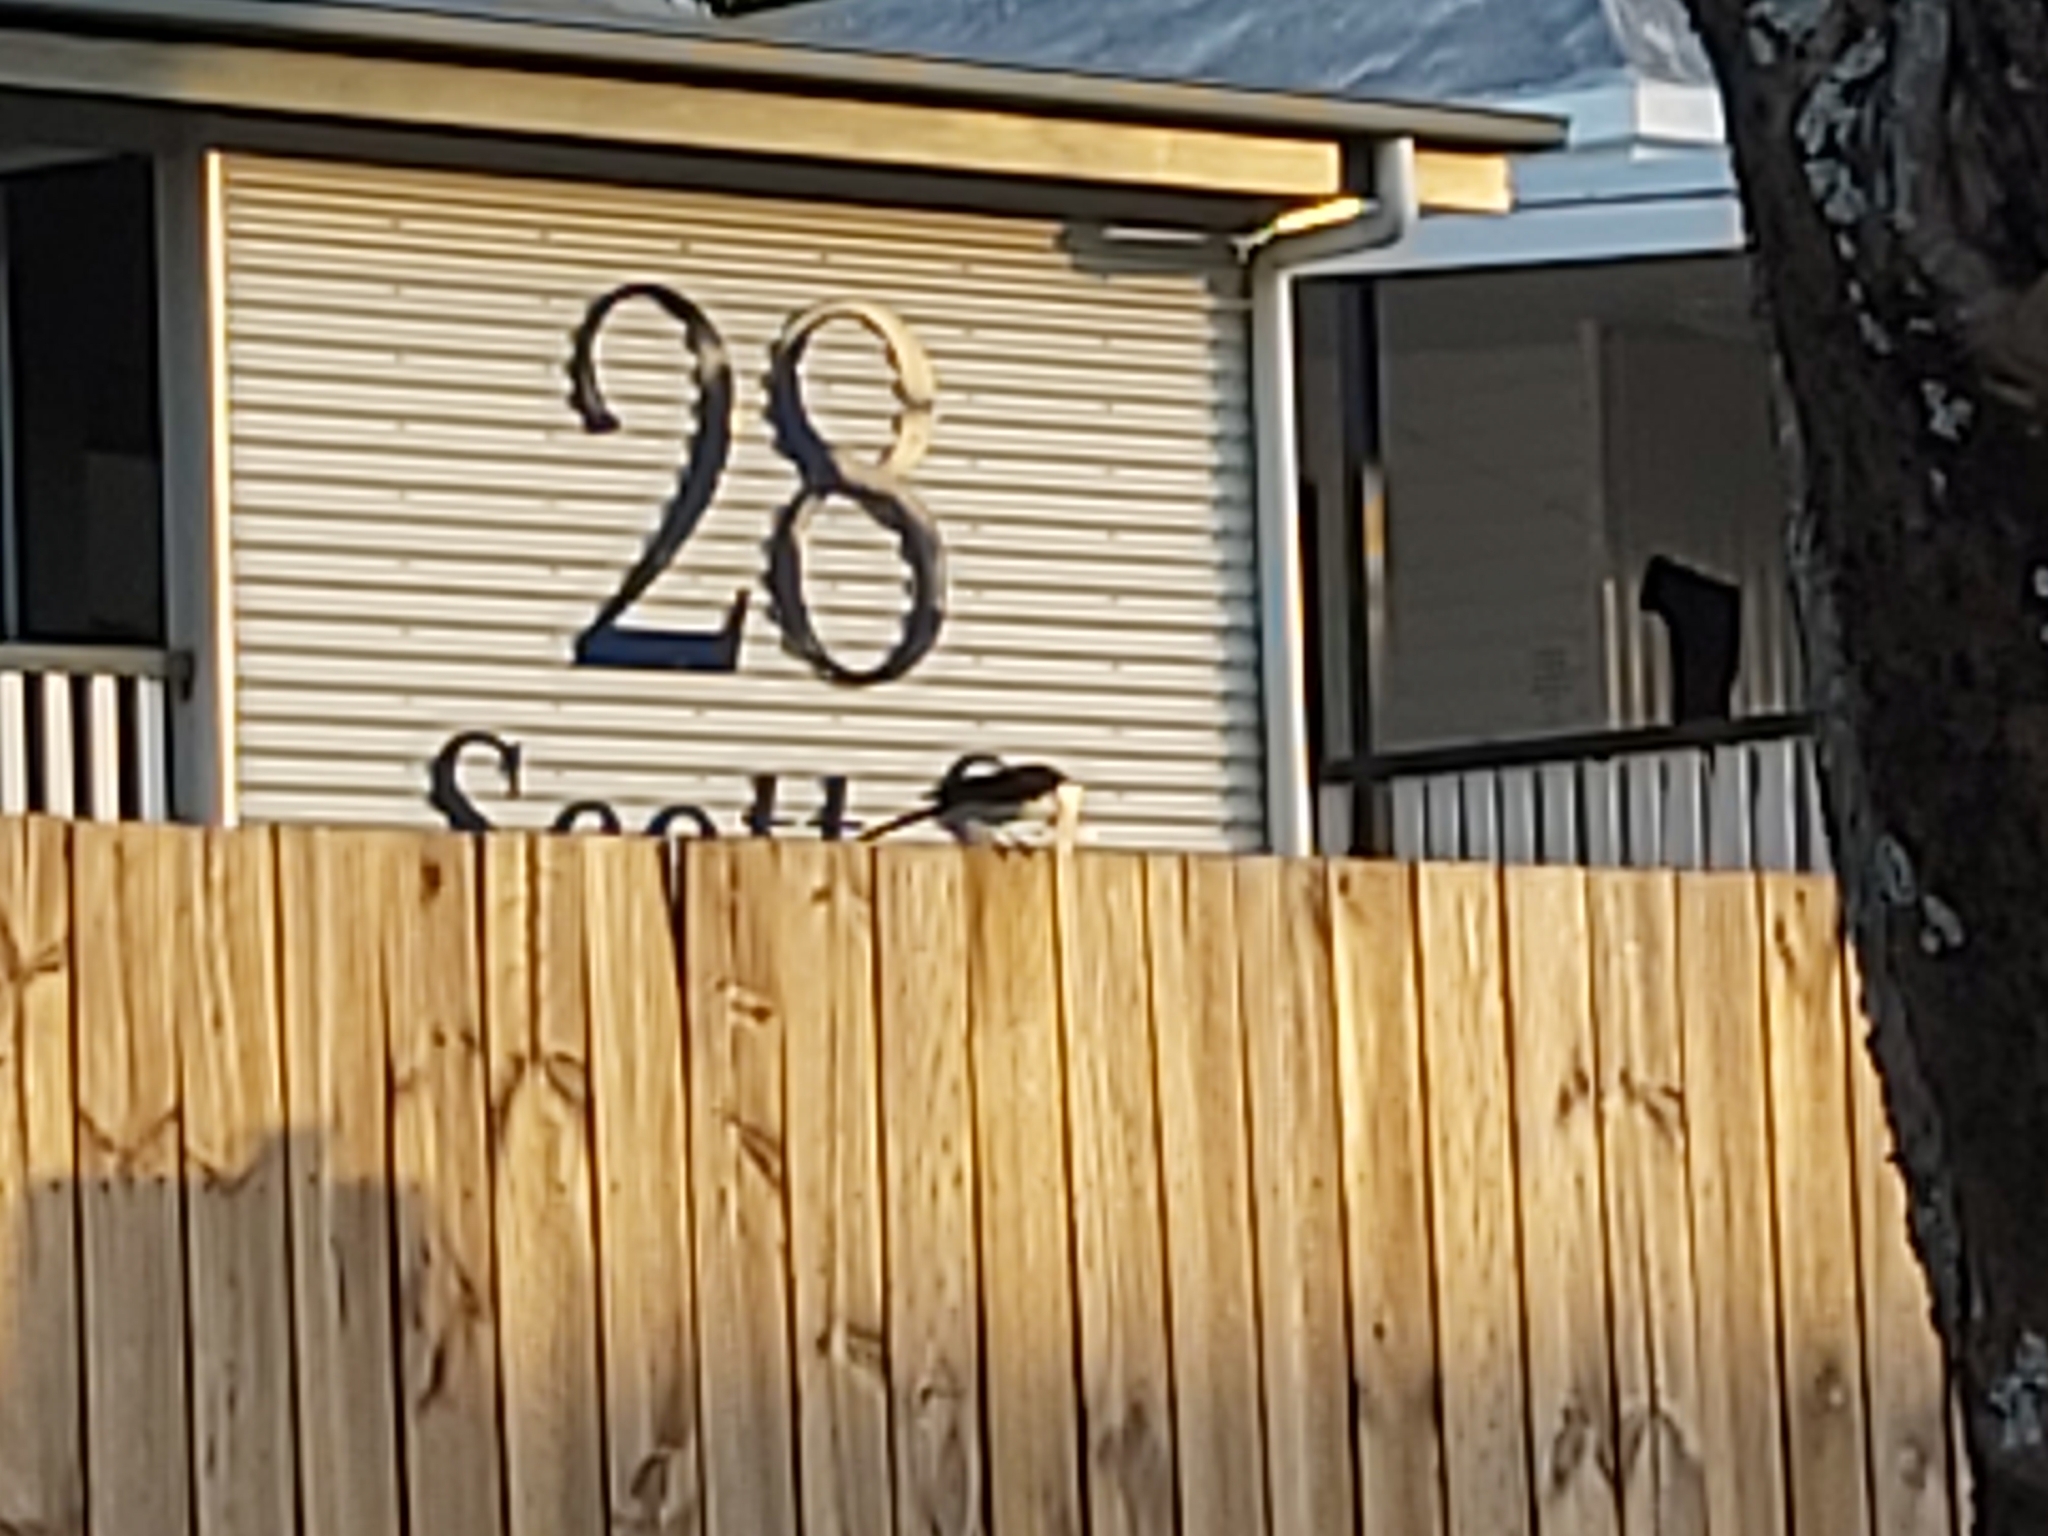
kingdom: Animalia
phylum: Chordata
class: Aves
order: Passeriformes
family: Rhipiduridae
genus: Rhipidura
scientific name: Rhipidura leucophrys
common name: Willie wagtail
